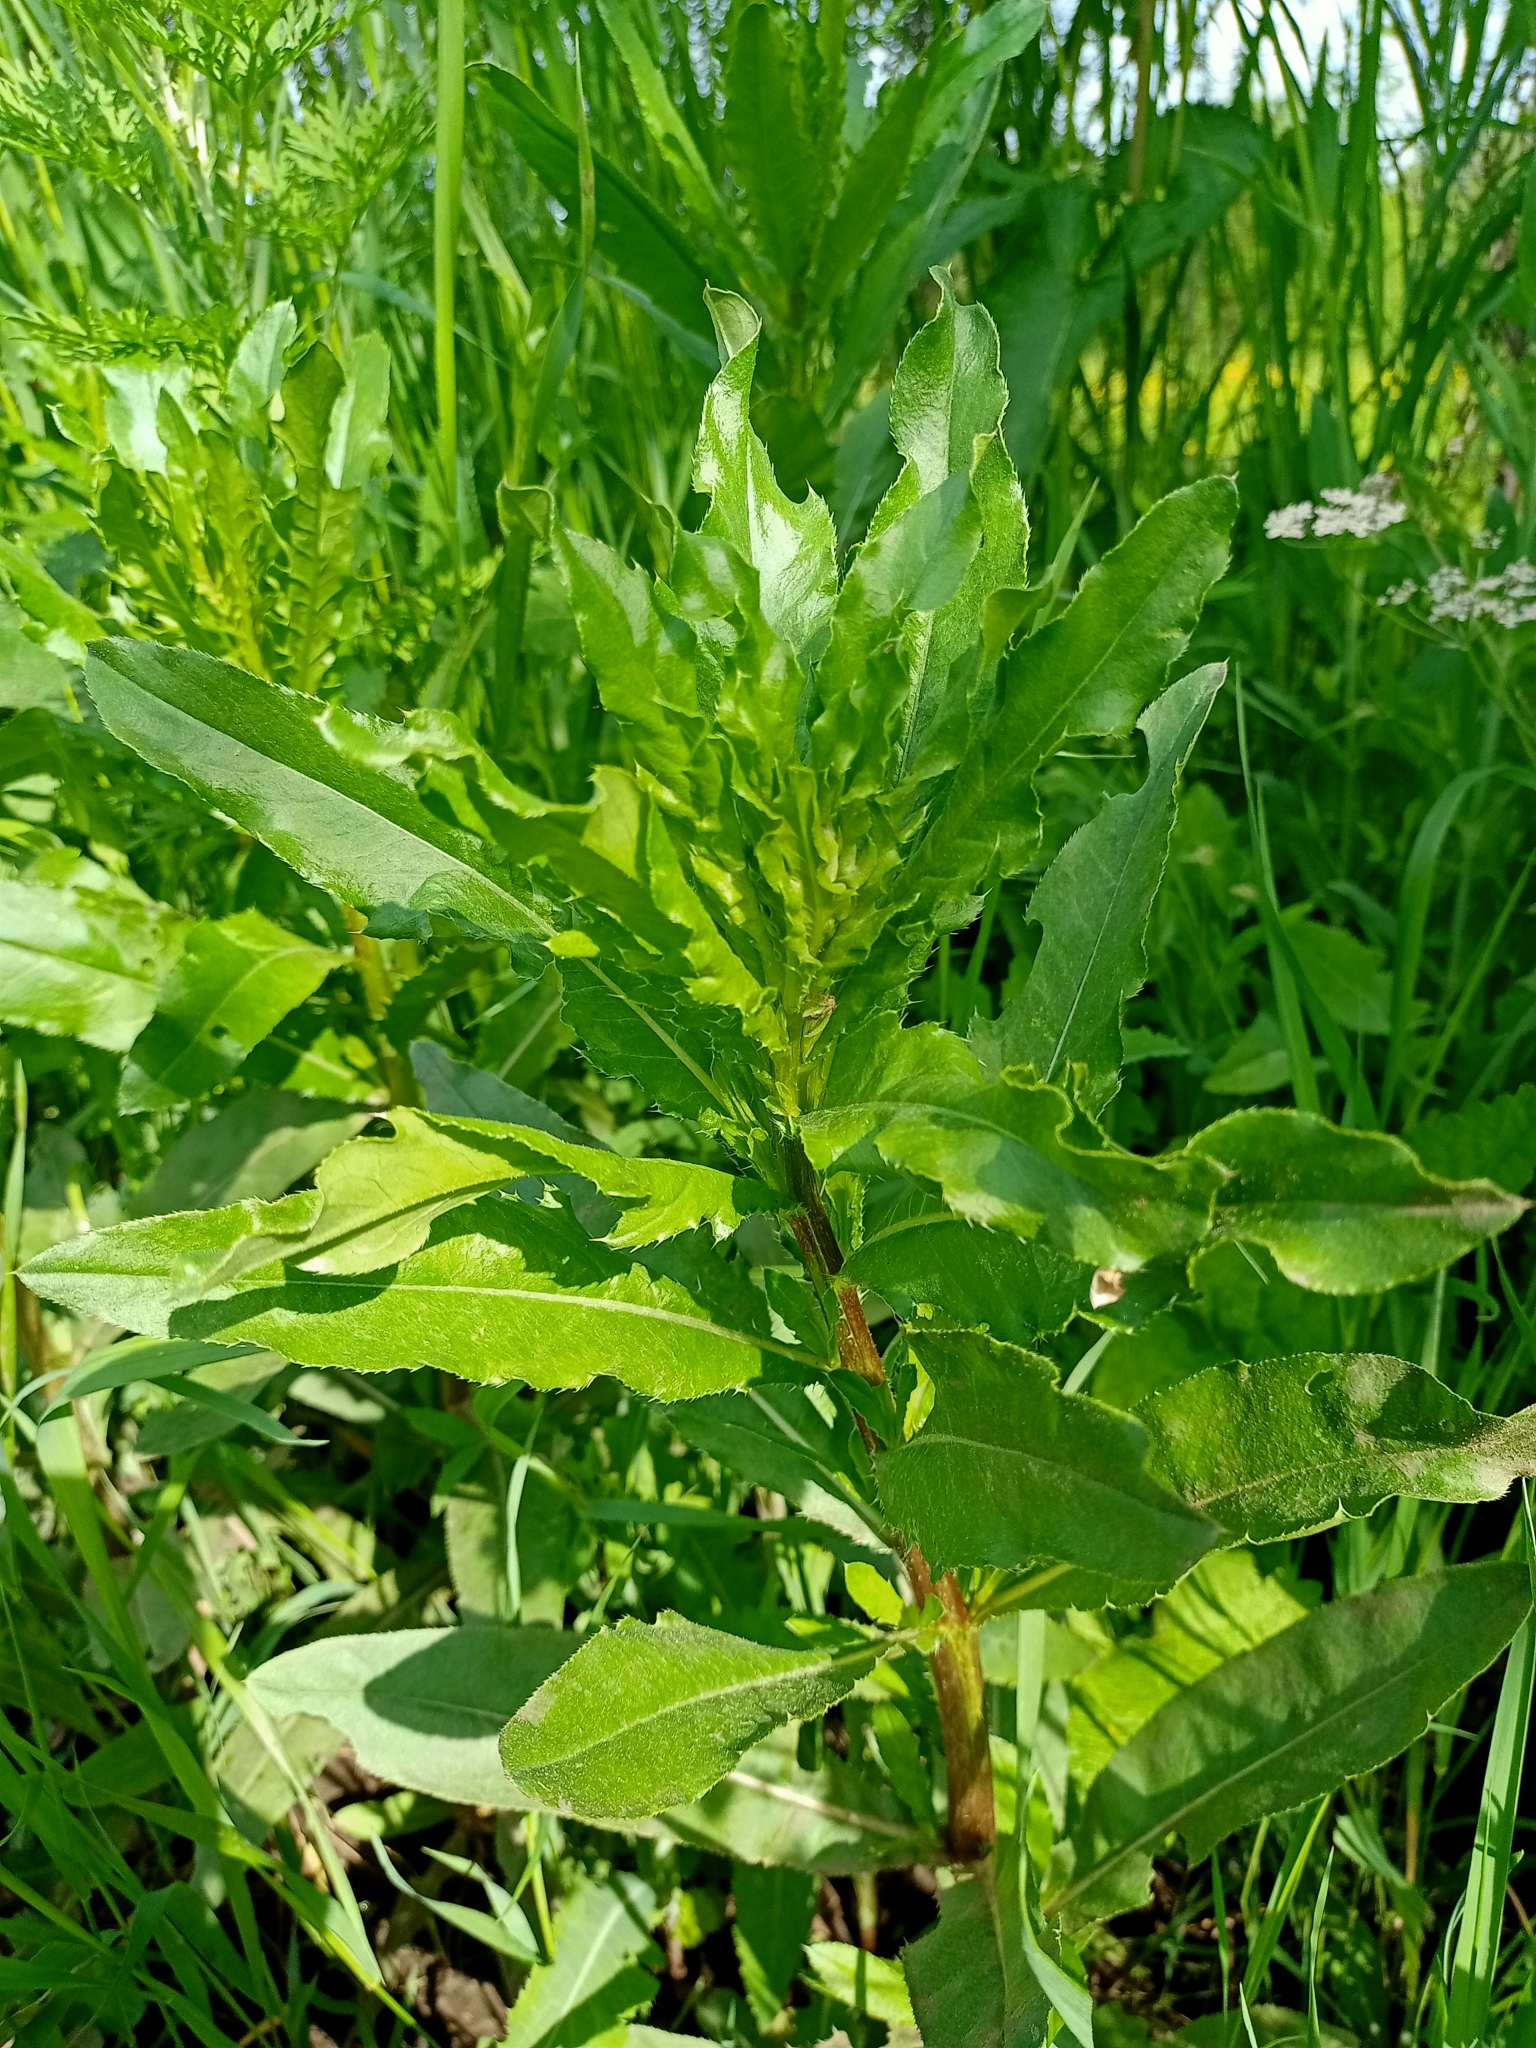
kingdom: Plantae
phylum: Tracheophyta
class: Magnoliopsida
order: Asterales
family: Asteraceae
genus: Cirsium
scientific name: Cirsium arvense
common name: Creeping thistle
